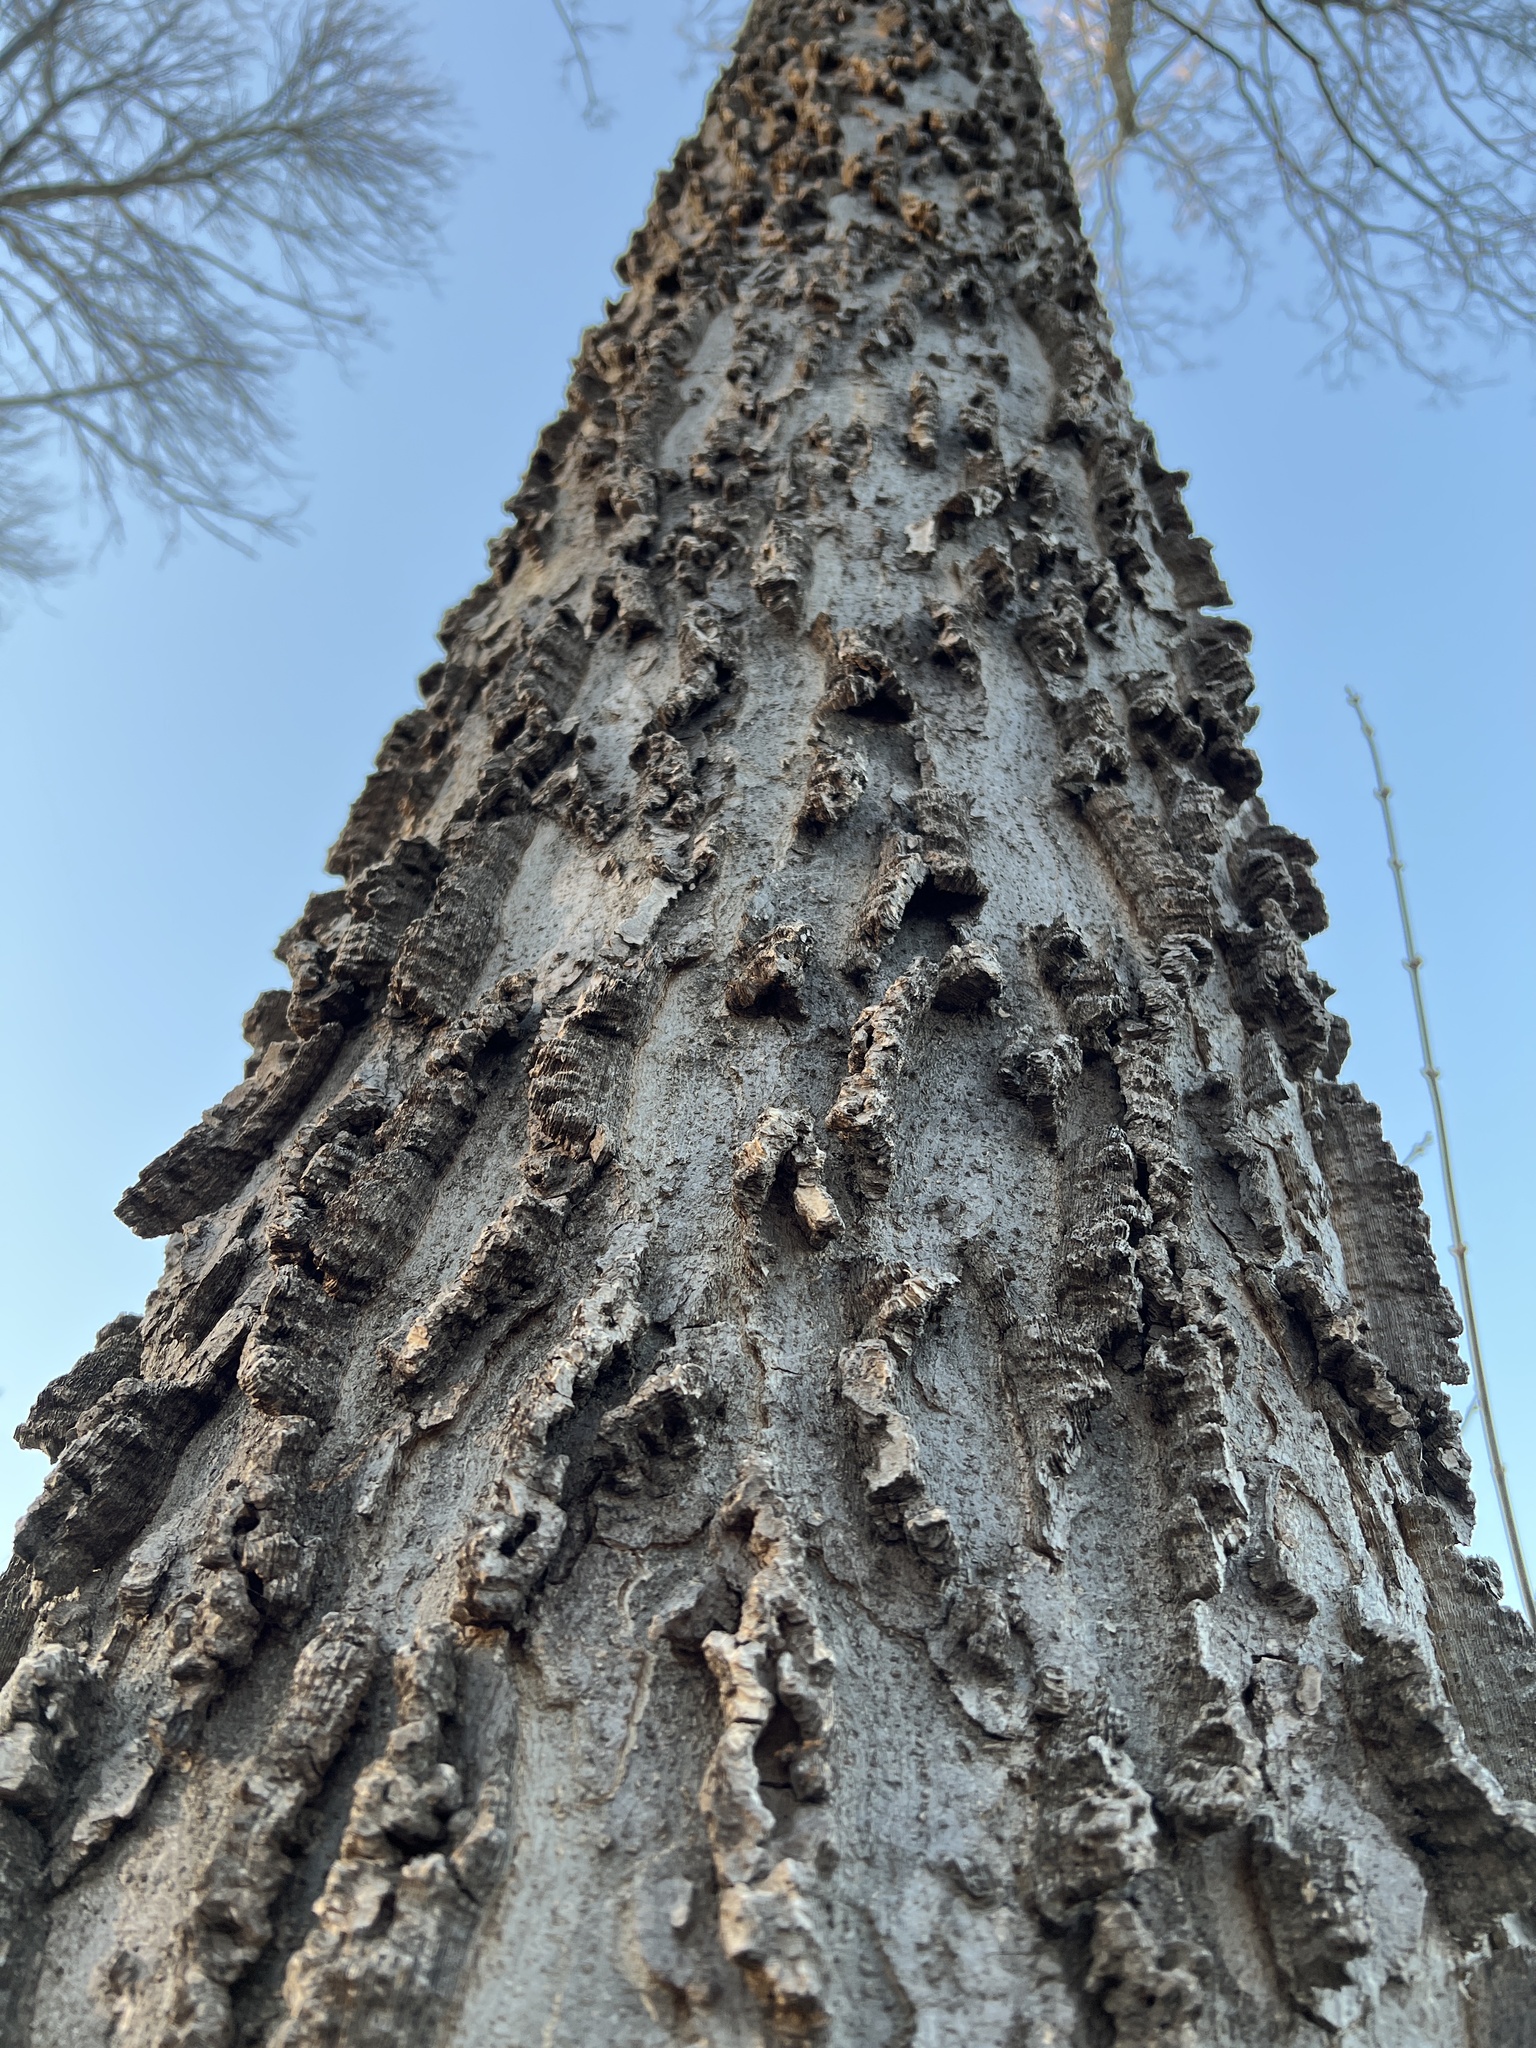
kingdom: Plantae
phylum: Tracheophyta
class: Magnoliopsida
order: Rosales
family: Cannabaceae
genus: Celtis
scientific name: Celtis occidentalis
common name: Common hackberry
